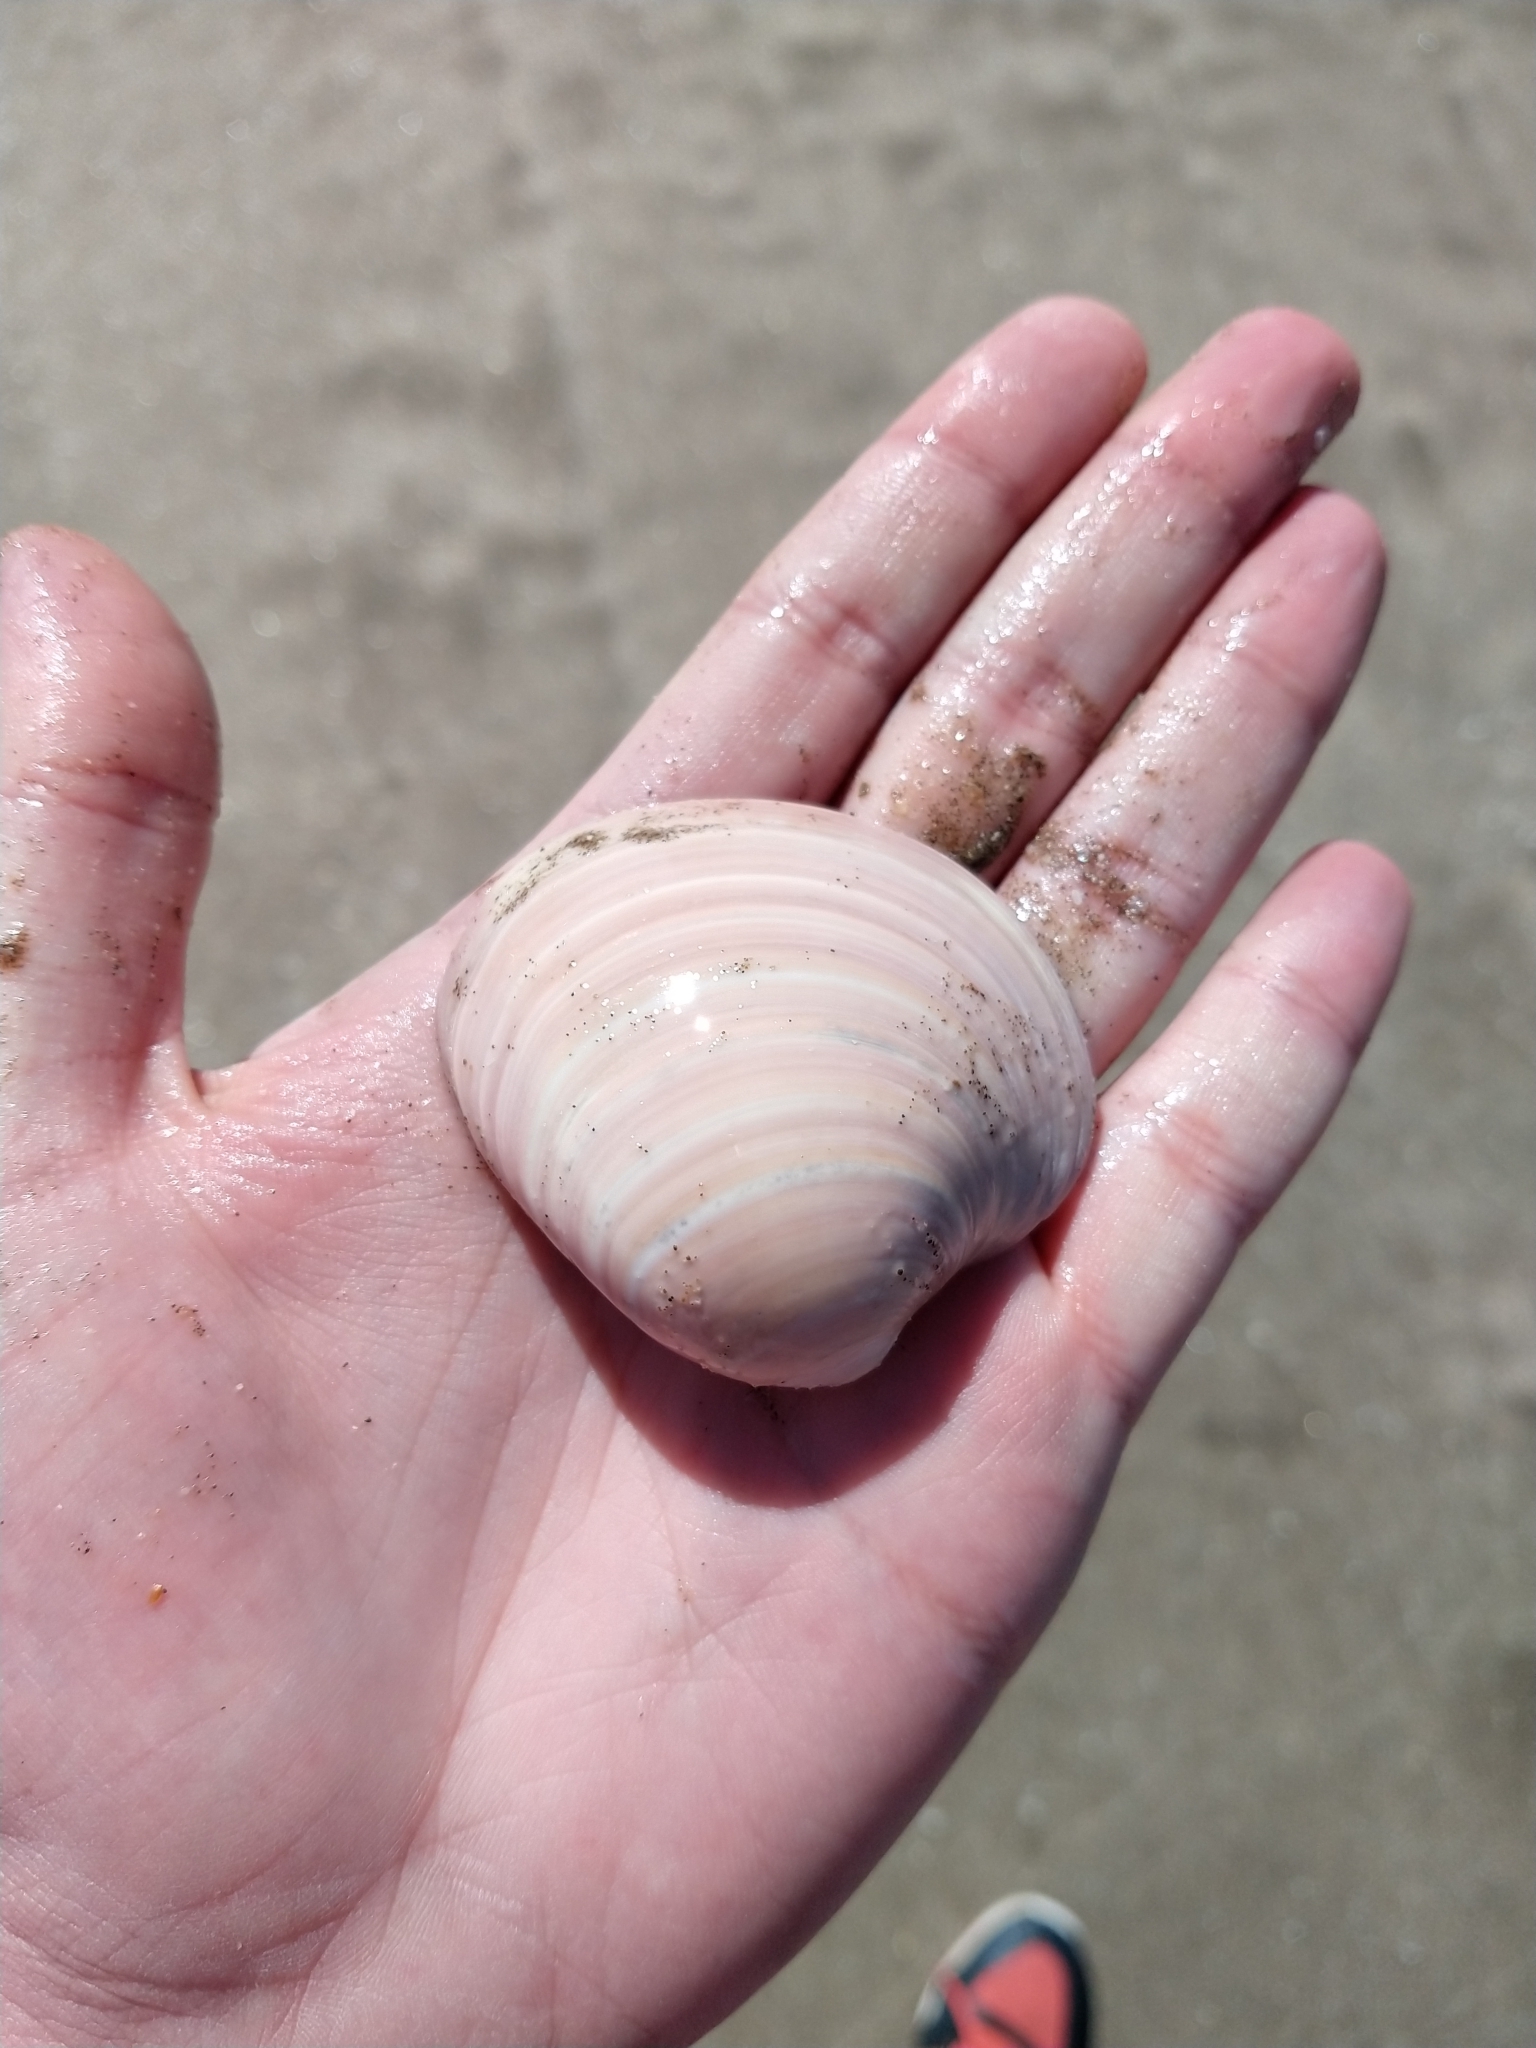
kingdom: Animalia
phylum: Mollusca
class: Bivalvia
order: Venerida
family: Veneridae
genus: Eucallista
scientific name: Eucallista purpurata
